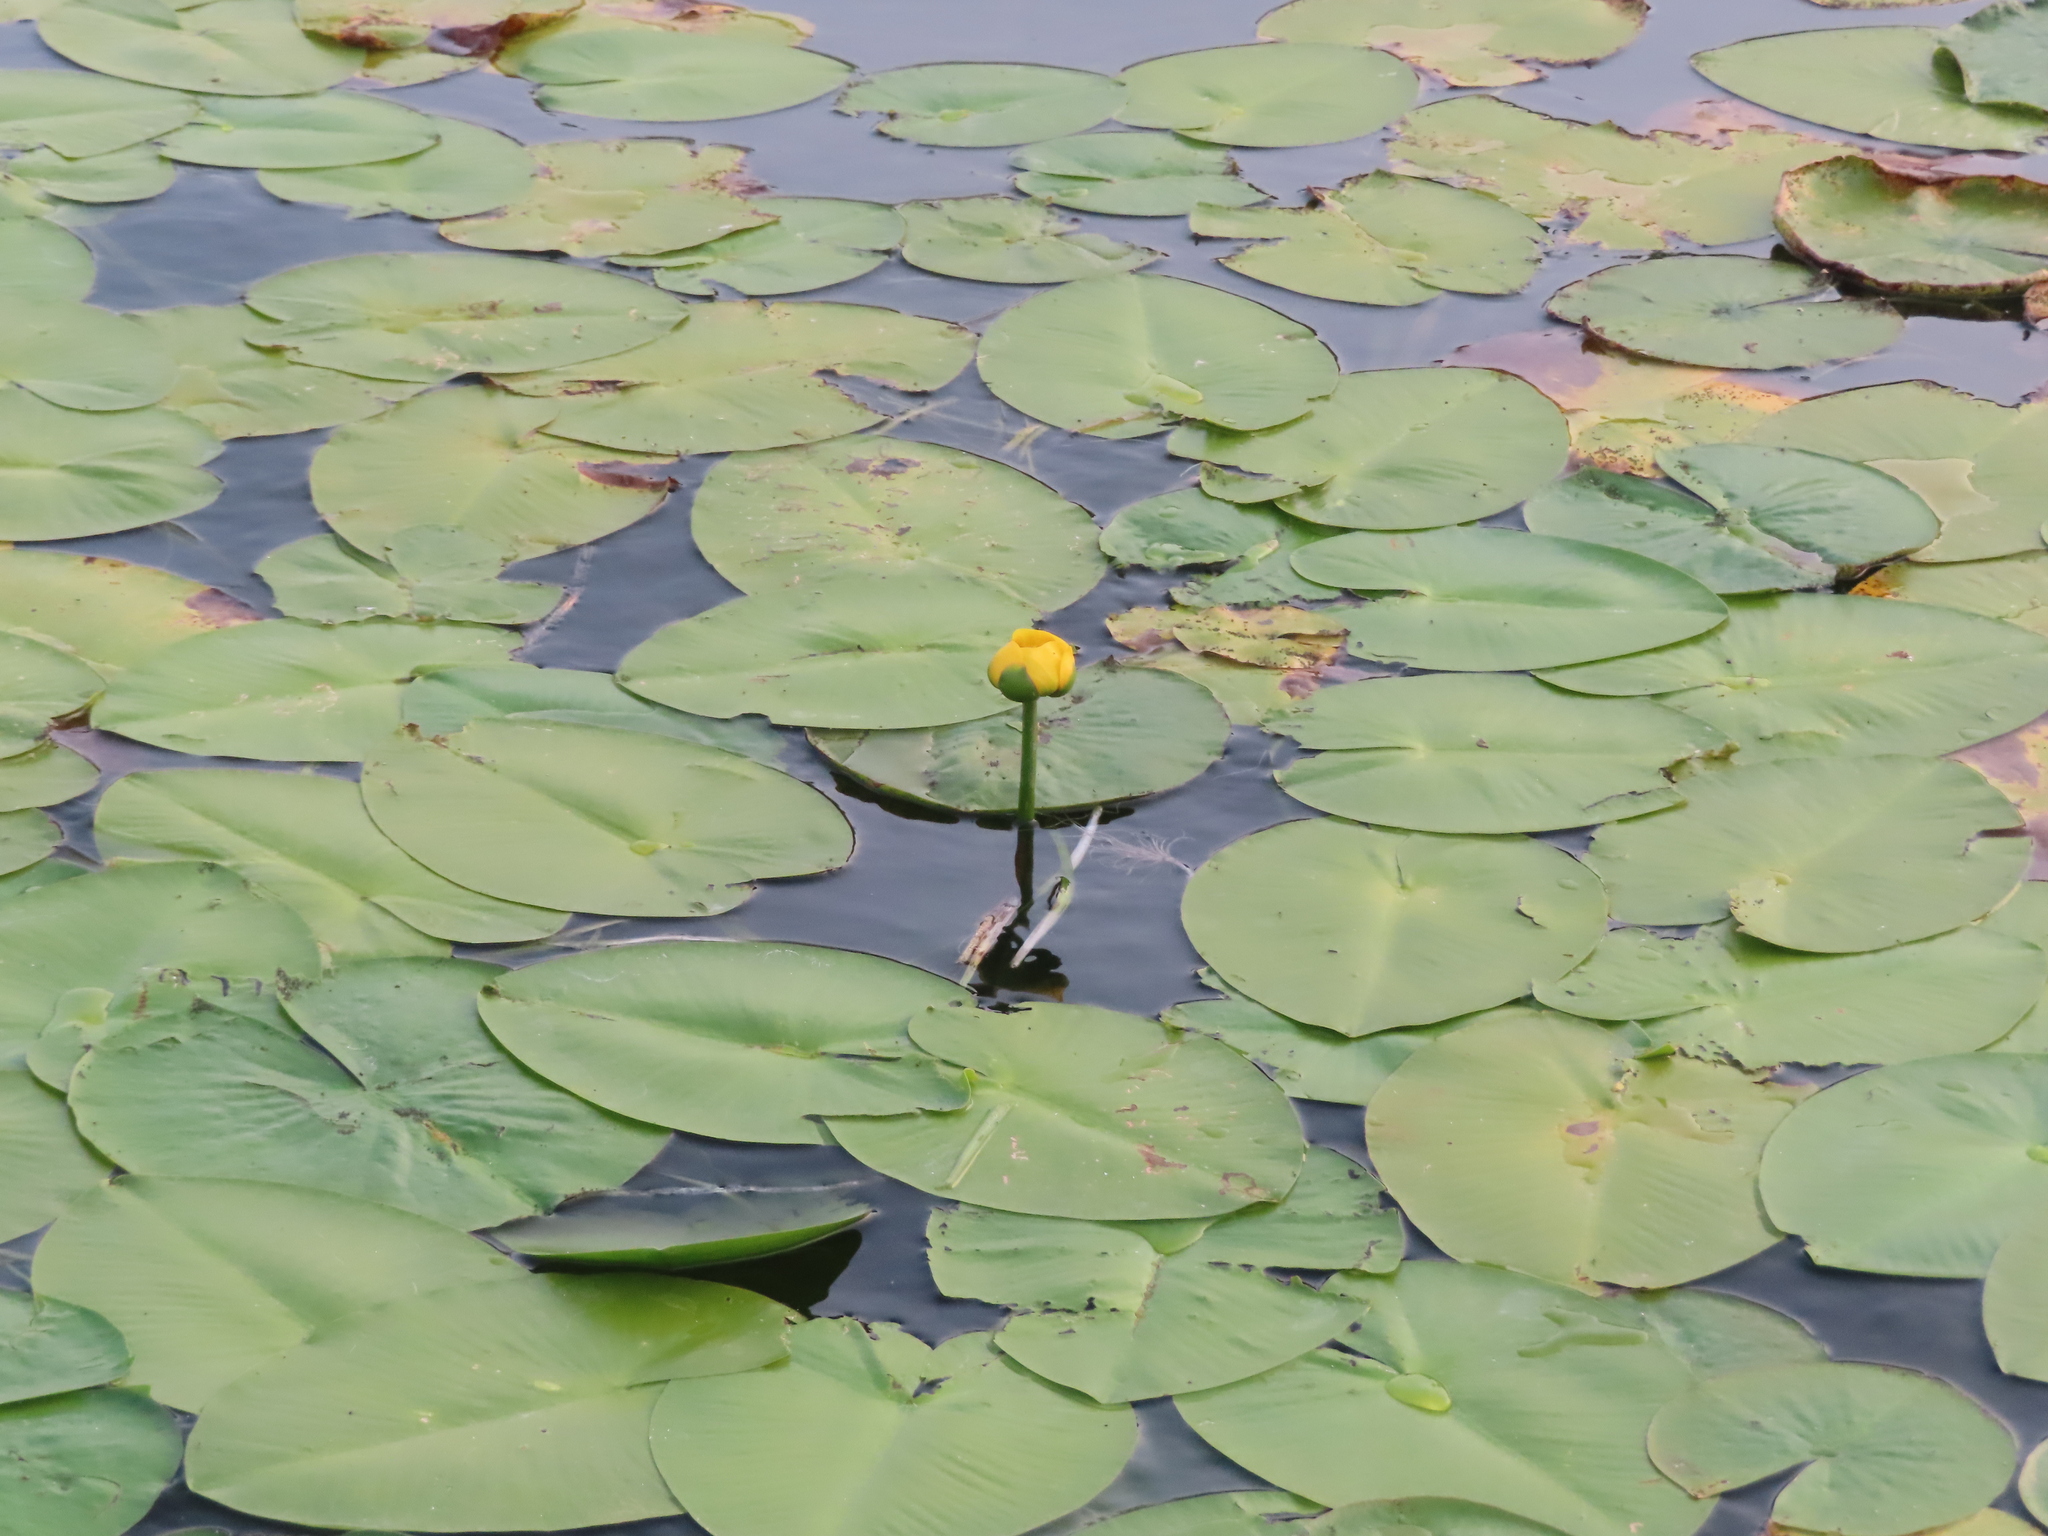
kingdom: Plantae
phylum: Tracheophyta
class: Magnoliopsida
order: Nymphaeales
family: Nymphaeaceae
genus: Nuphar
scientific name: Nuphar variegata
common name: Beaver-root
